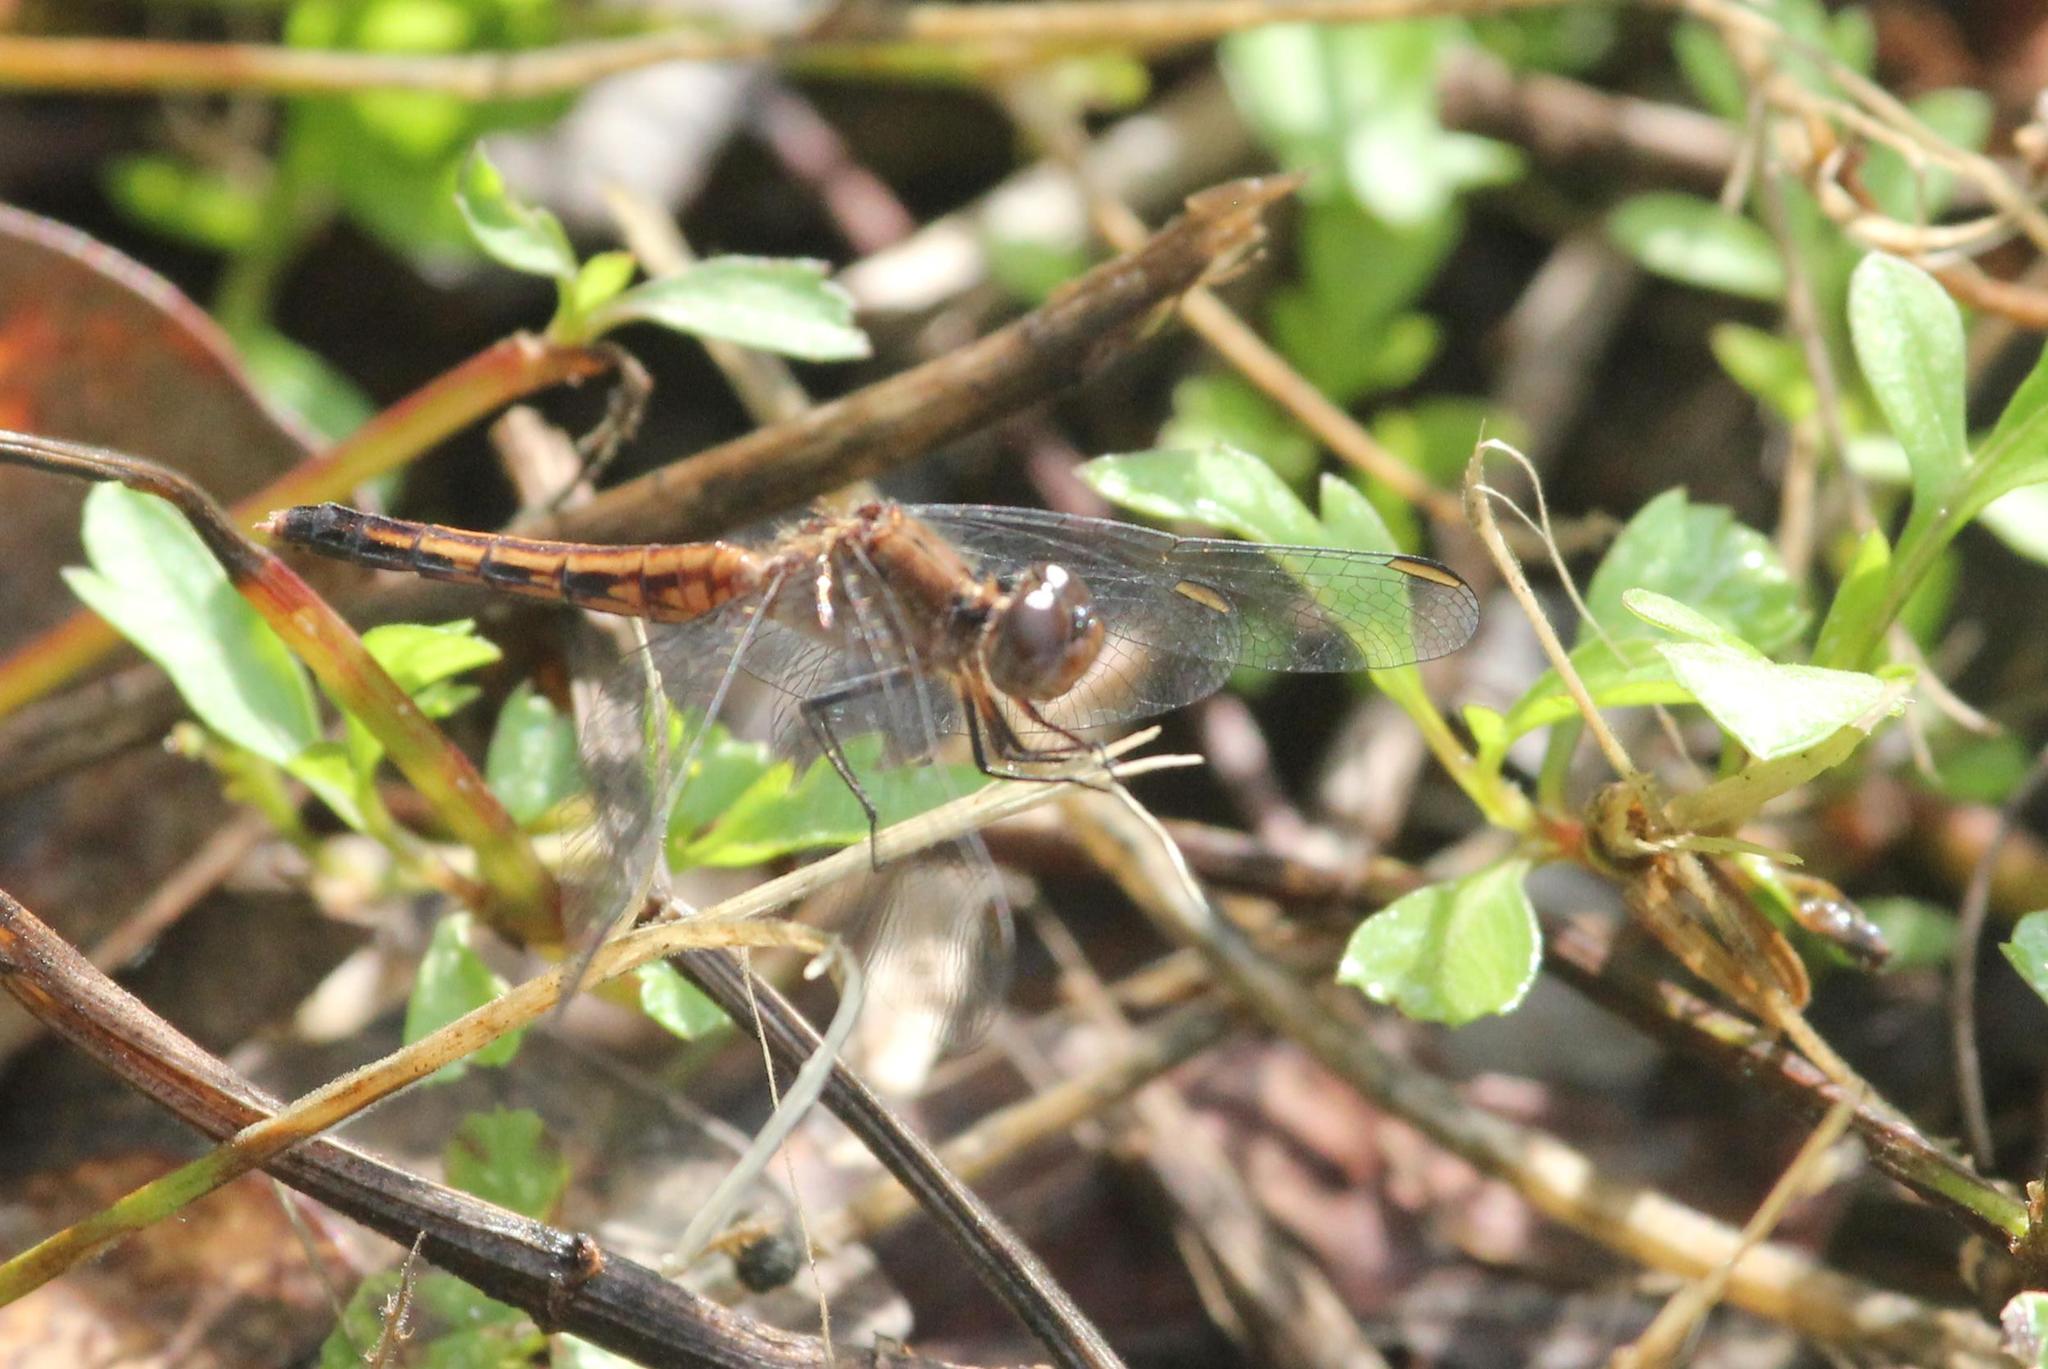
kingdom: Animalia
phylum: Arthropoda
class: Insecta
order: Odonata
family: Libellulidae
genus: Erythrodiplax
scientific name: Erythrodiplax minuscula
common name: Little blue dragonlet
